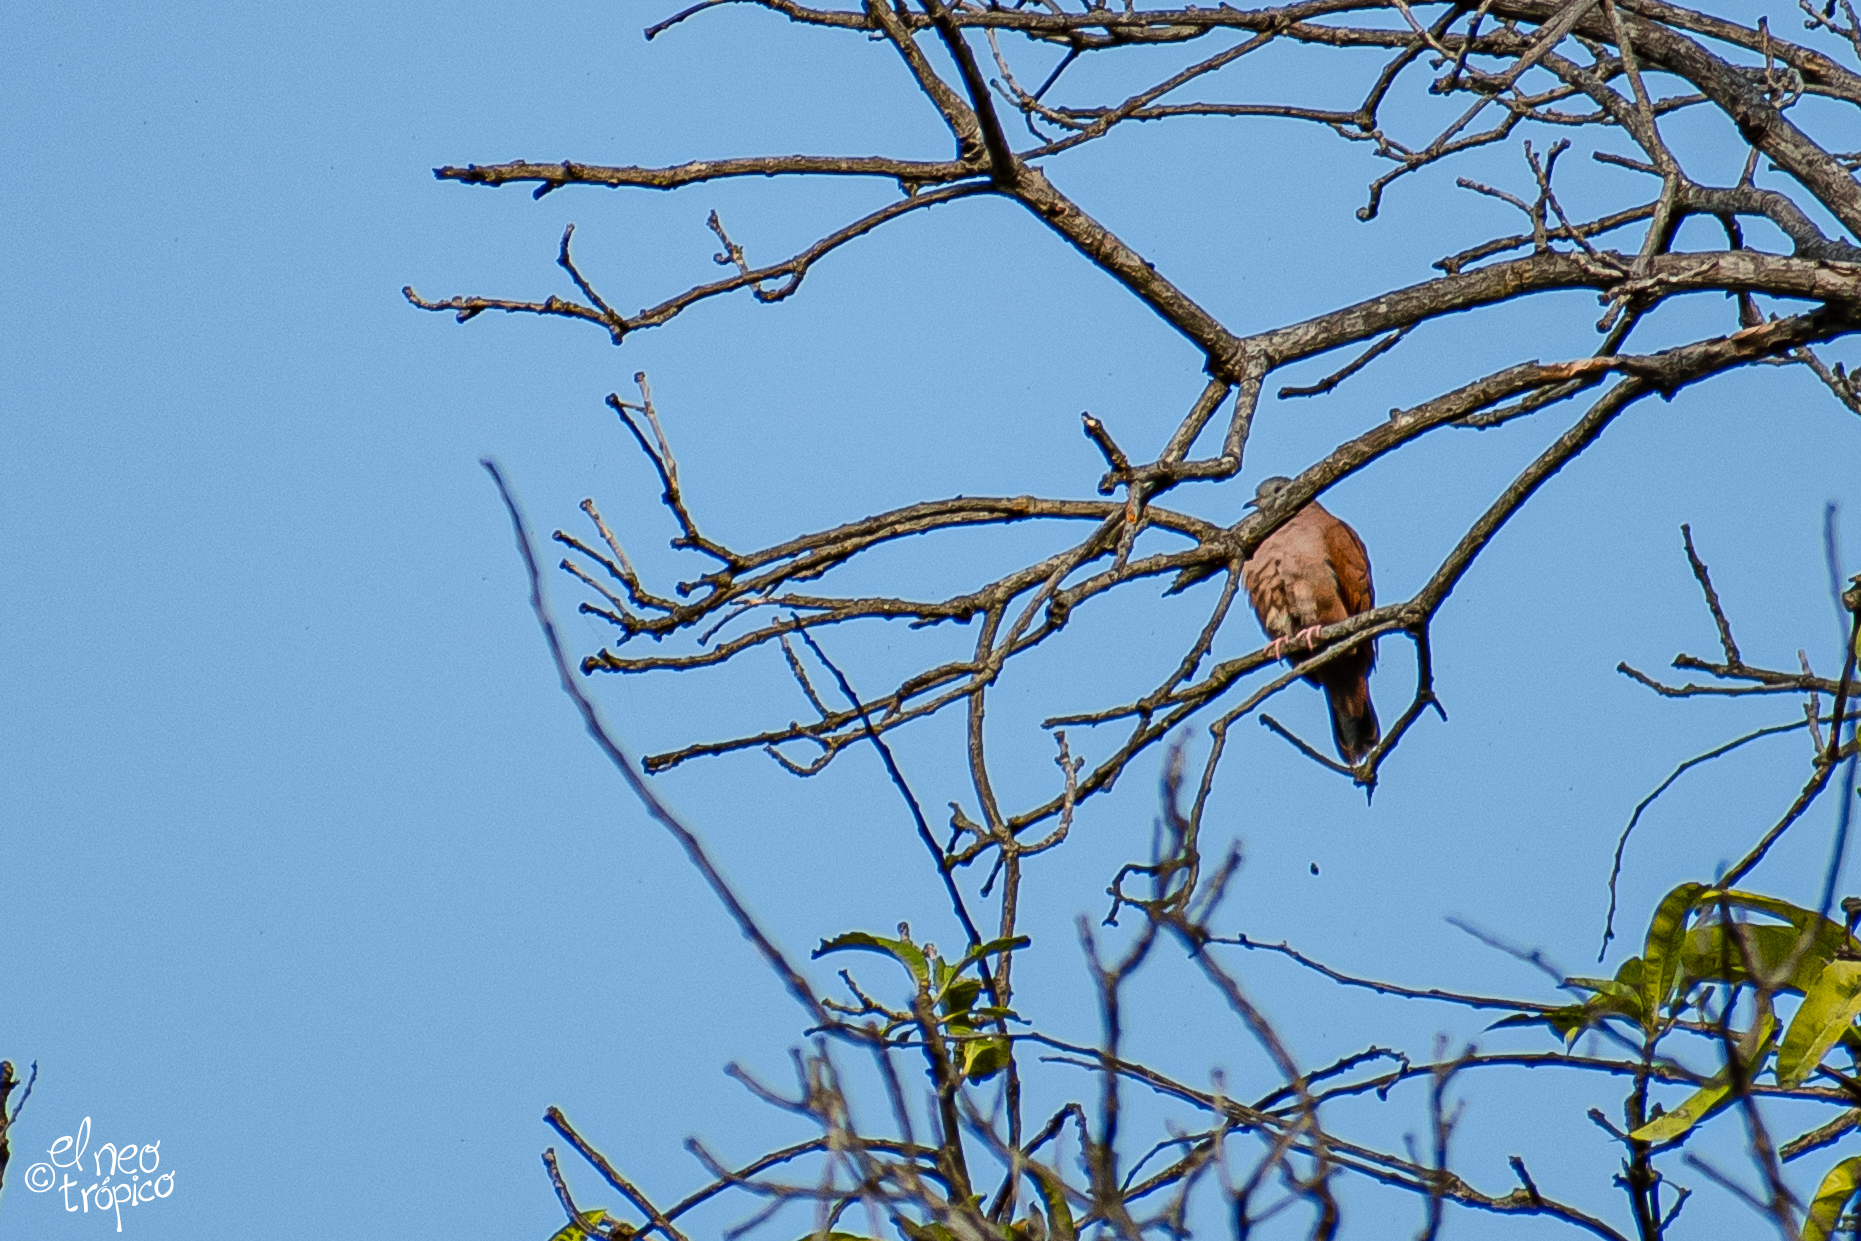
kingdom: Animalia
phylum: Chordata
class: Aves
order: Columbiformes
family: Columbidae
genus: Columbina
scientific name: Columbina talpacoti
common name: Ruddy ground dove
